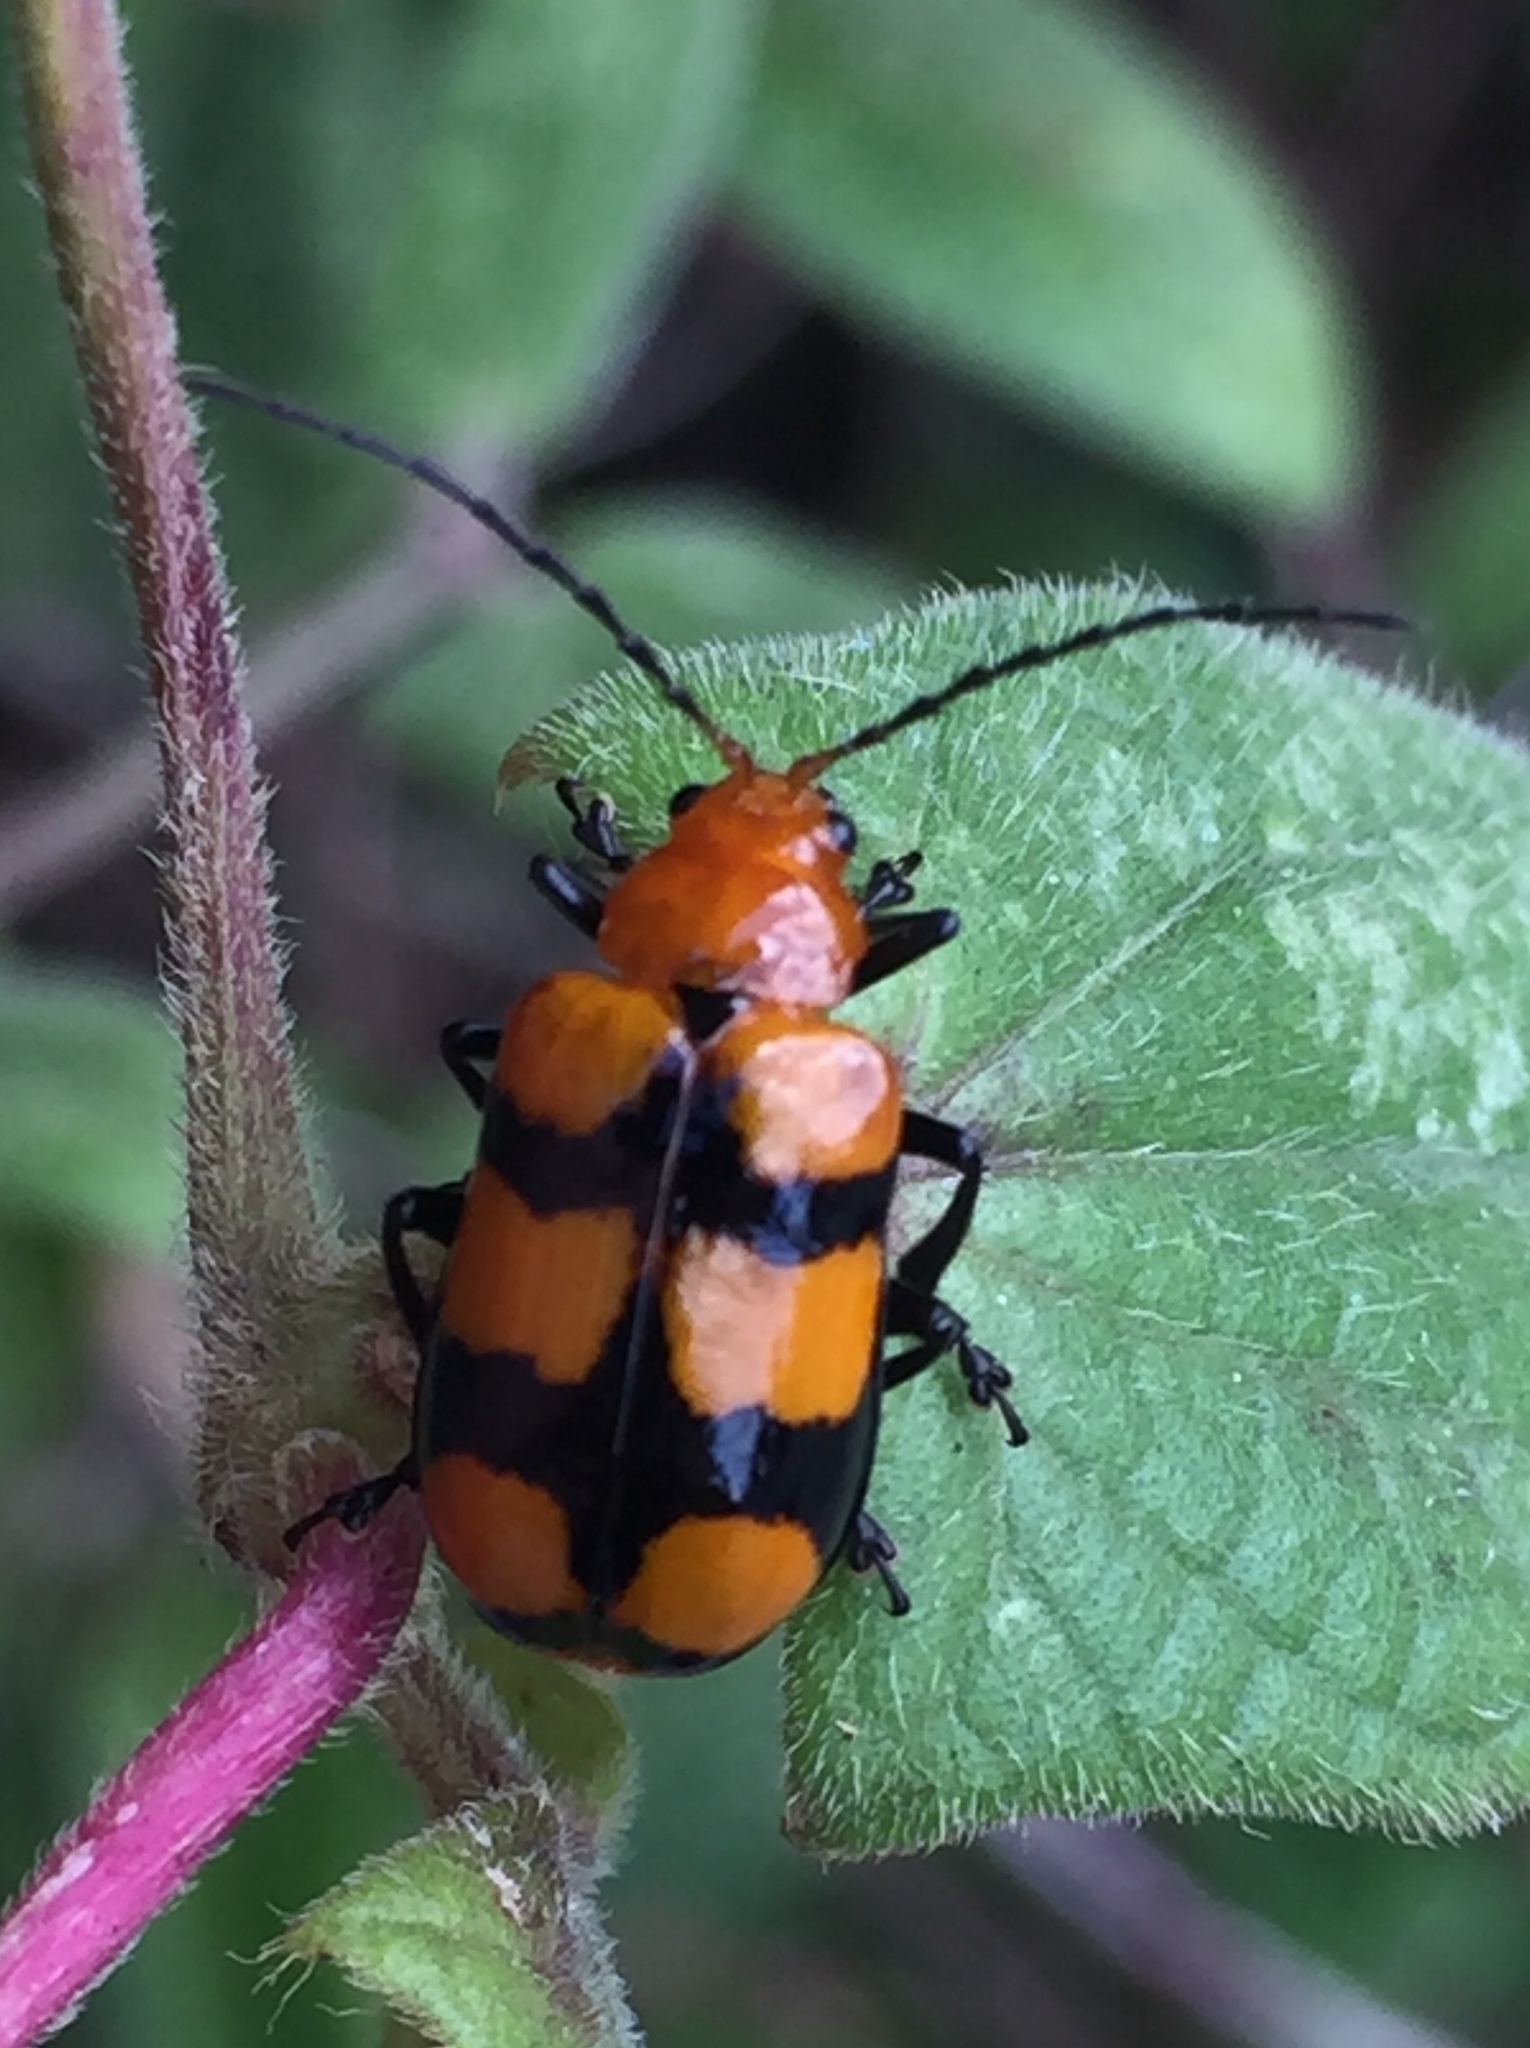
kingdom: Animalia
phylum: Arthropoda
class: Insecta
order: Coleoptera
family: Chrysomelidae
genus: Prosmidia
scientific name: Prosmidia
